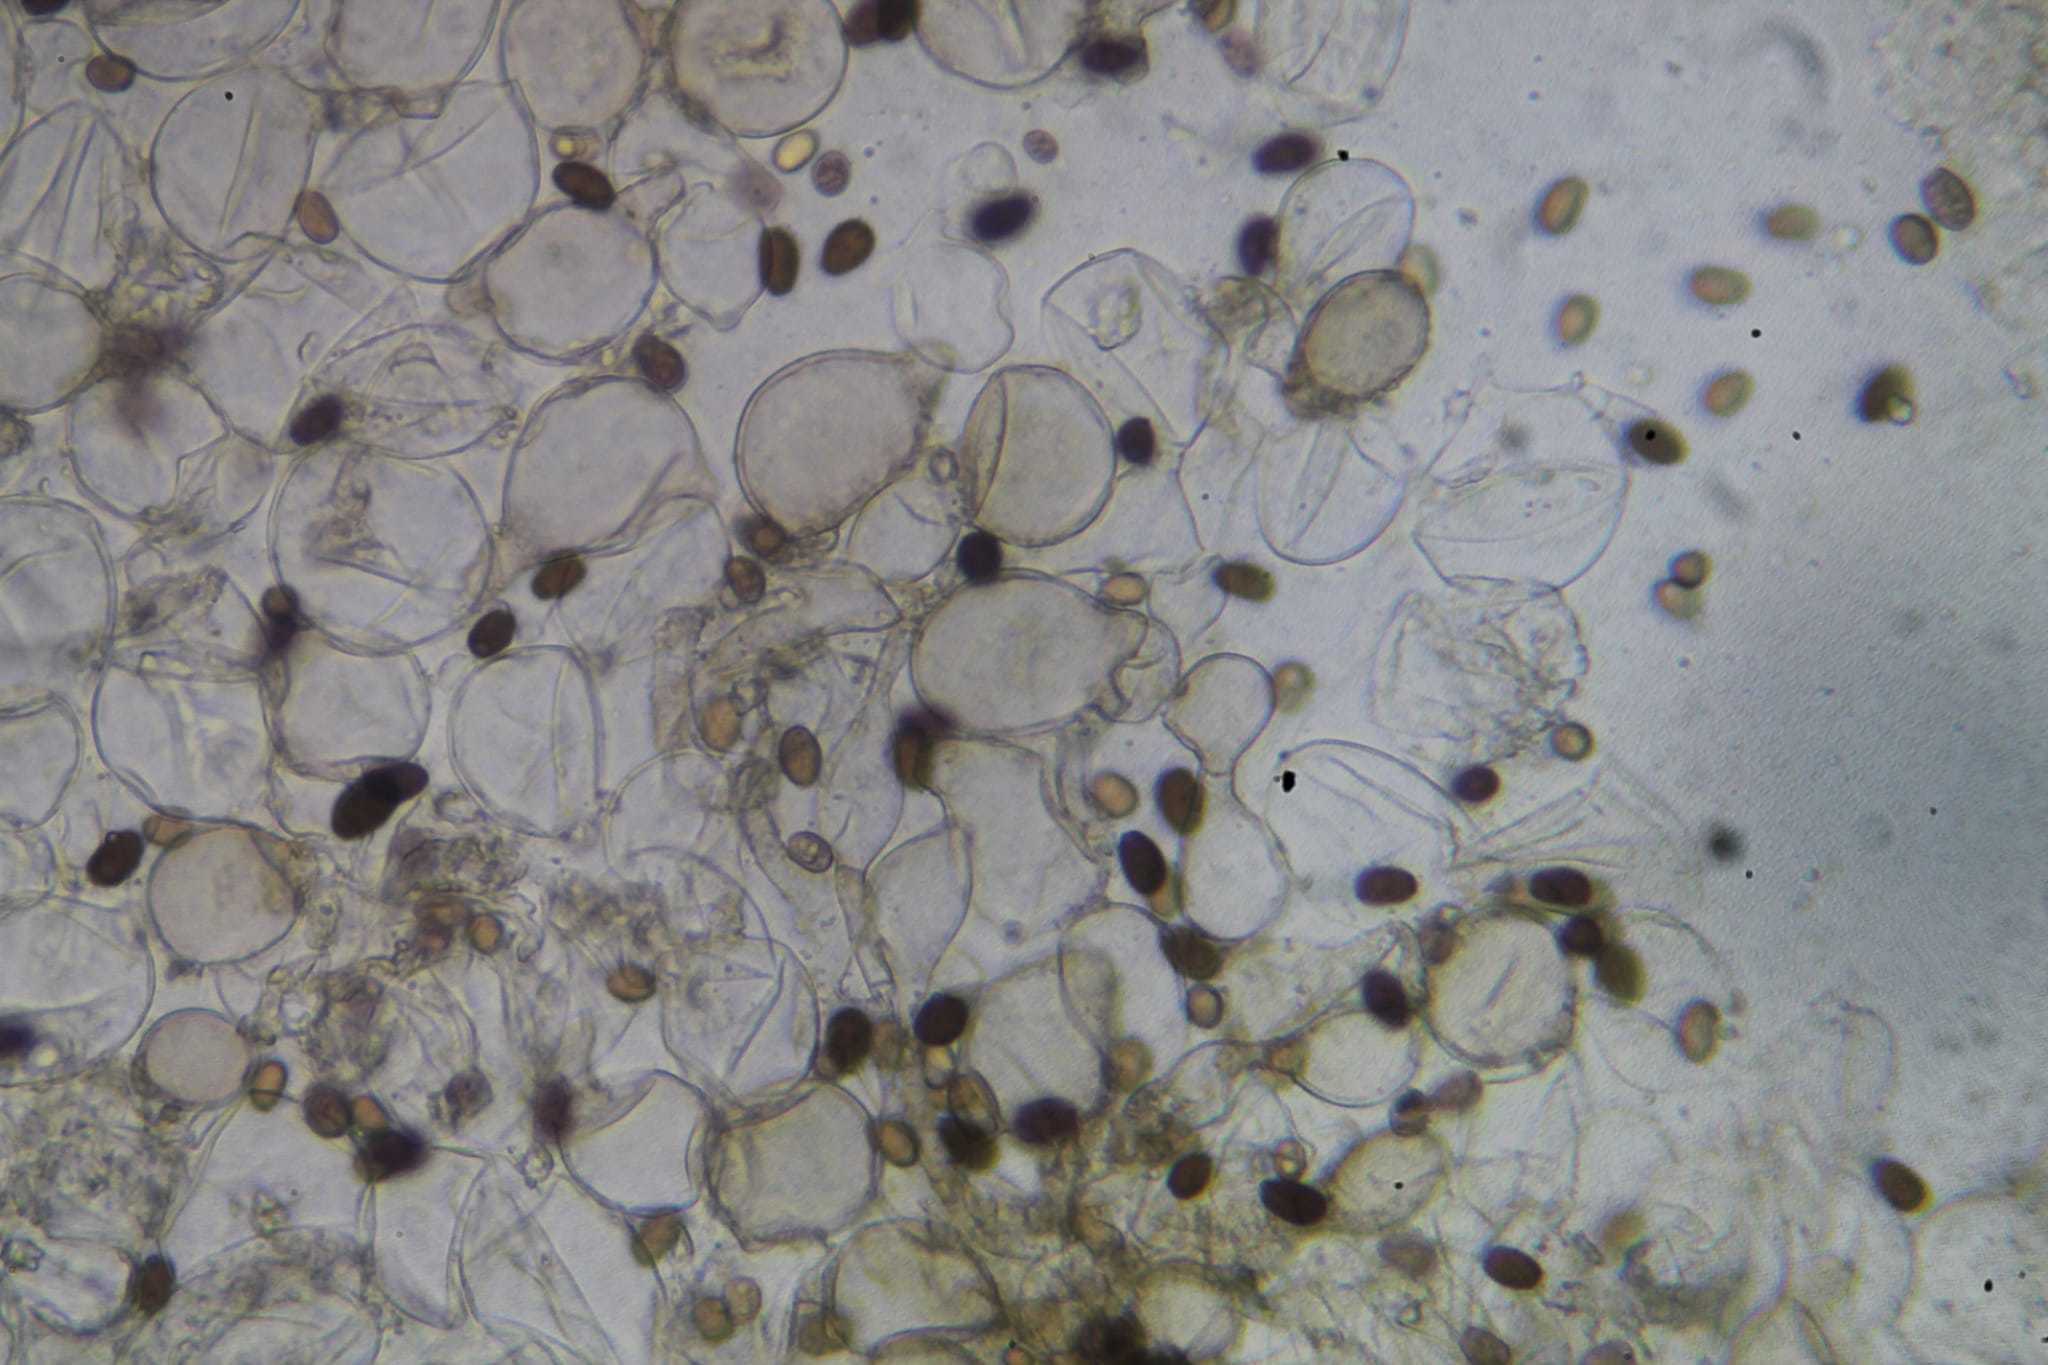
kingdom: Fungi
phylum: Basidiomycota
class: Agaricomycetes
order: Agaricales
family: Psathyrellaceae
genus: Coprinellus
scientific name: Coprinellus xanthothrix
